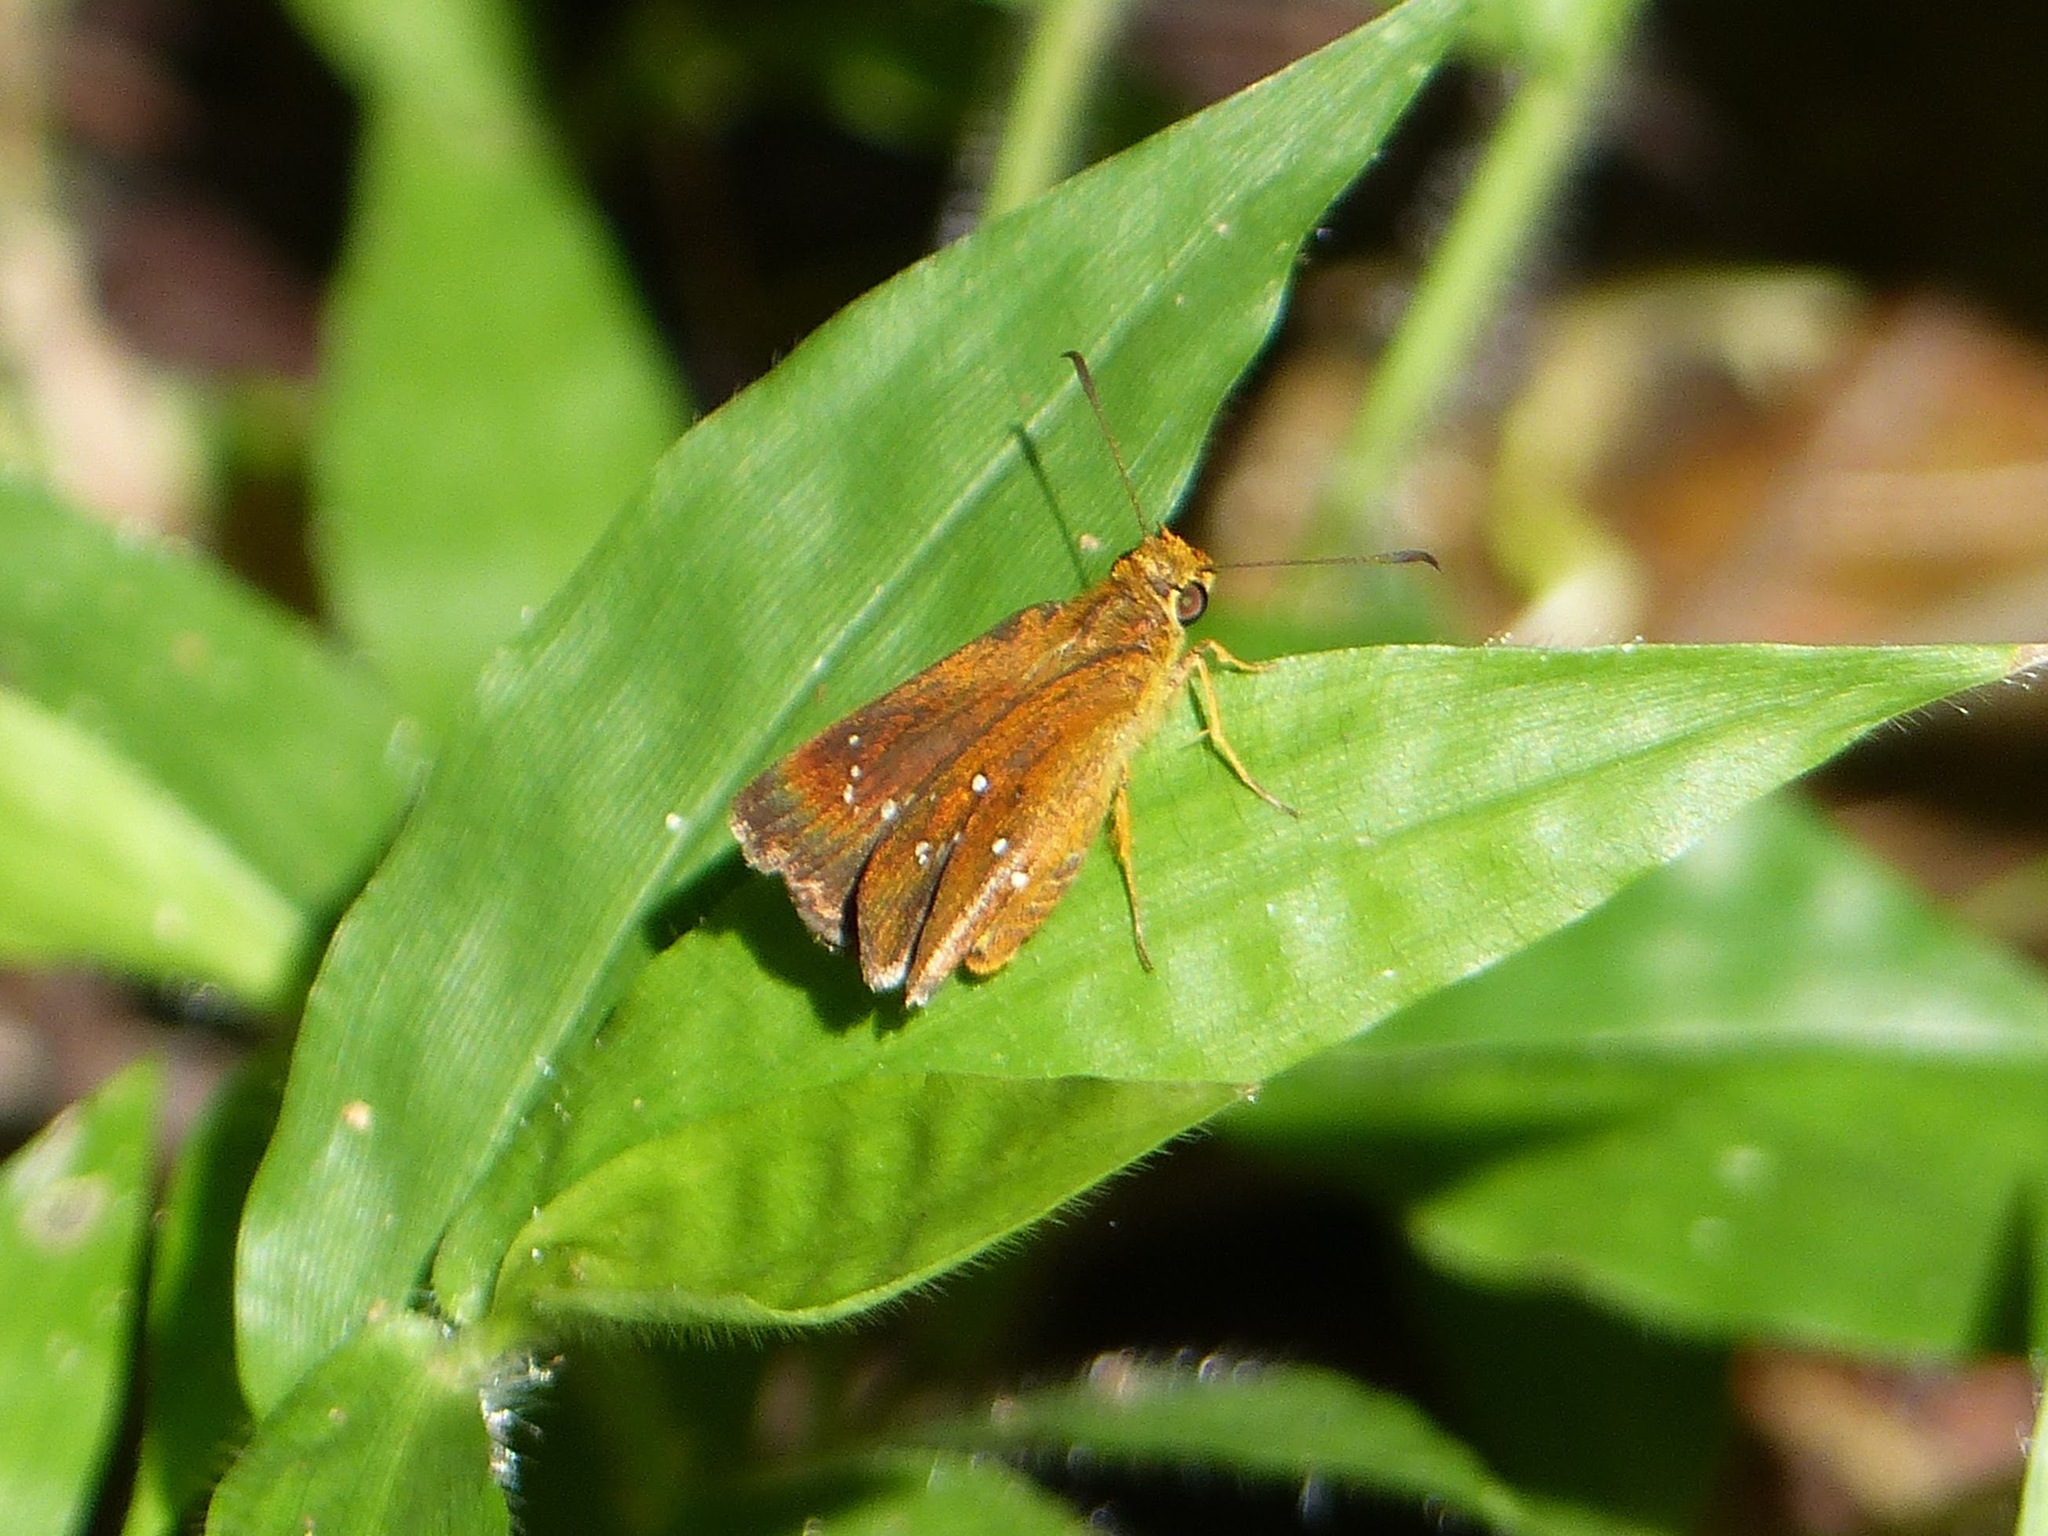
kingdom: Animalia
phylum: Arthropoda
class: Insecta
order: Lepidoptera
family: Hesperiidae
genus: Iambrix
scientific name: Iambrix salsala
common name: Chestnut bob
